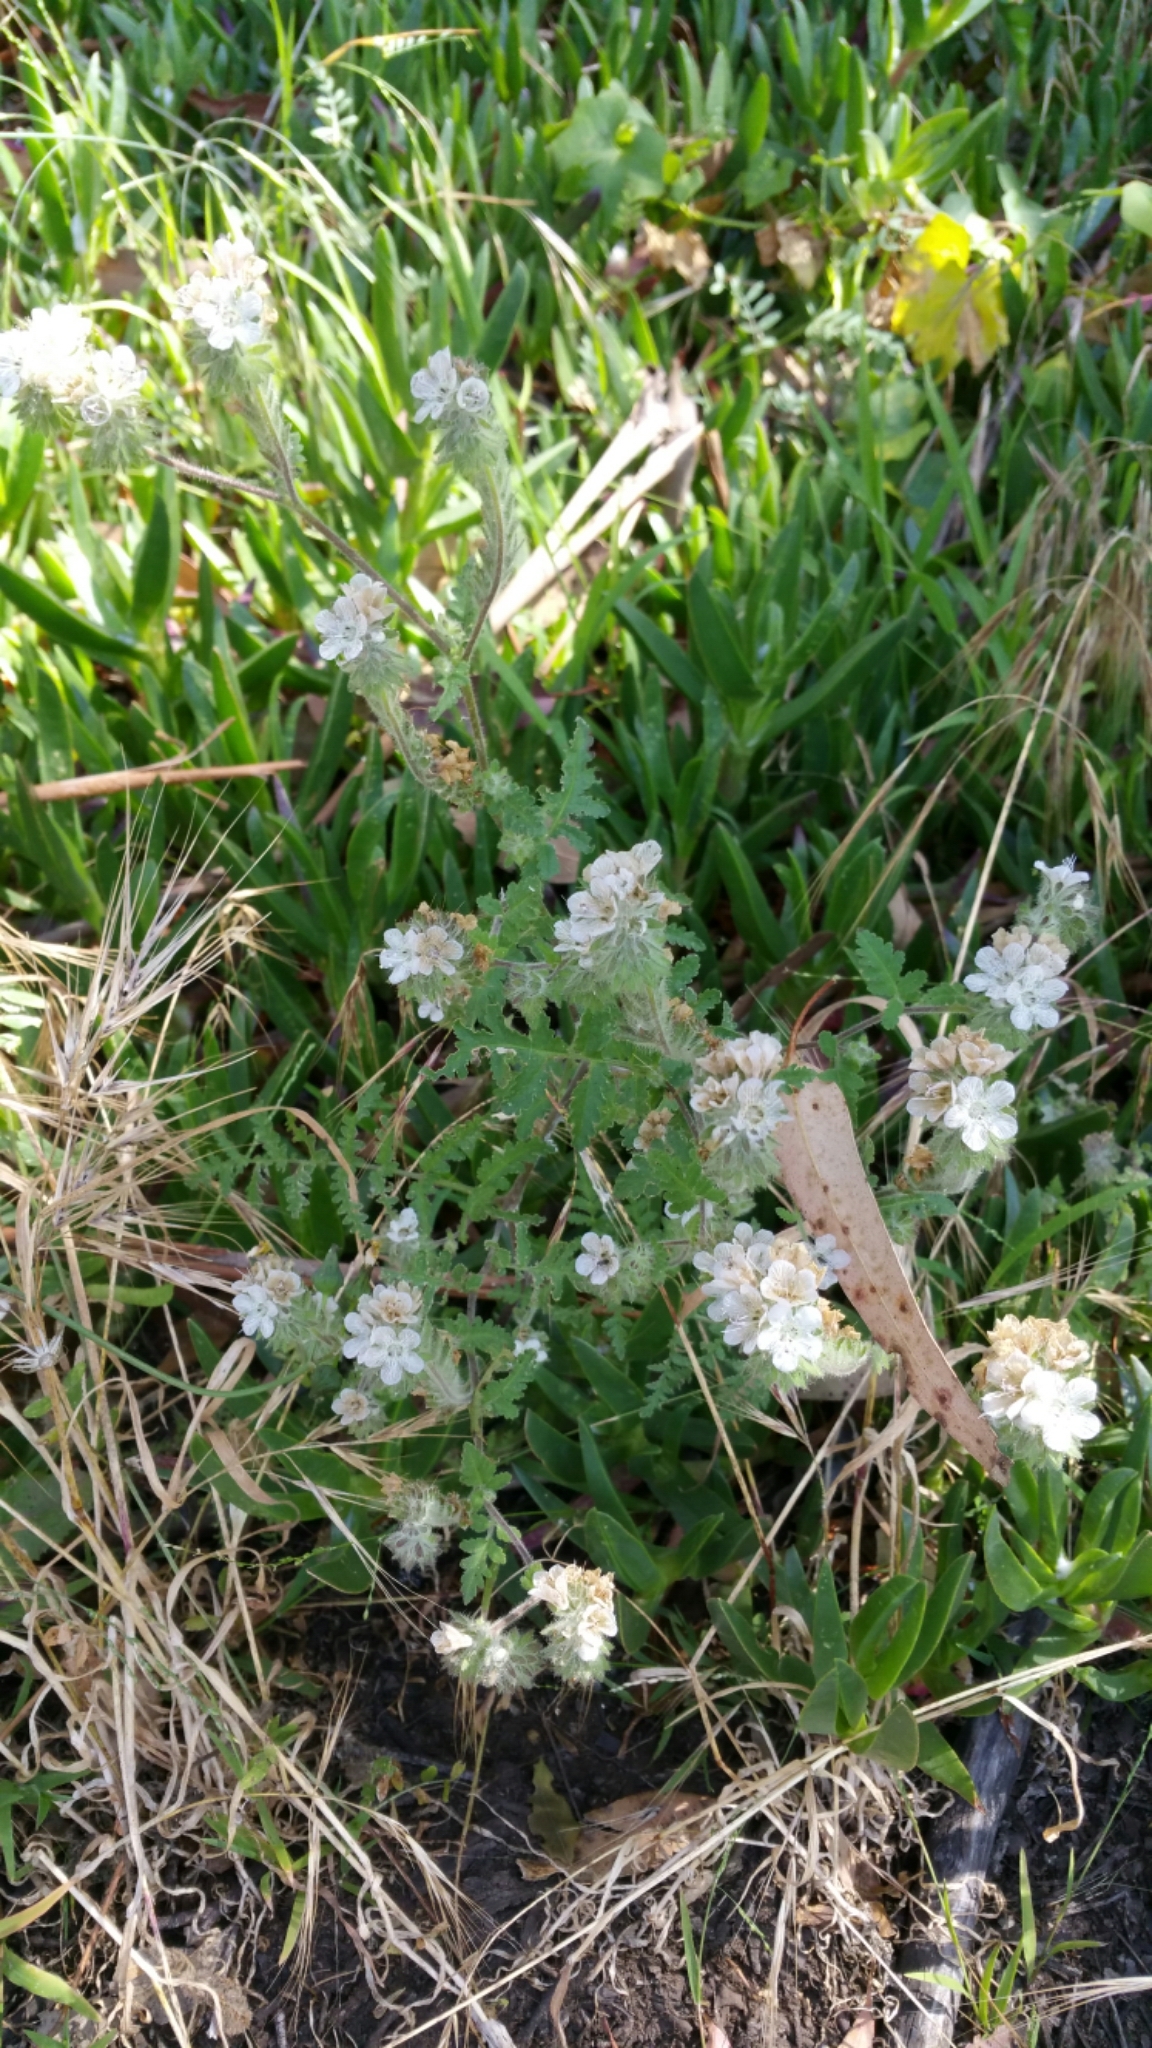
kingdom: Plantae
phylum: Tracheophyta
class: Magnoliopsida
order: Boraginales
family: Hydrophyllaceae
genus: Phacelia
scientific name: Phacelia distans
